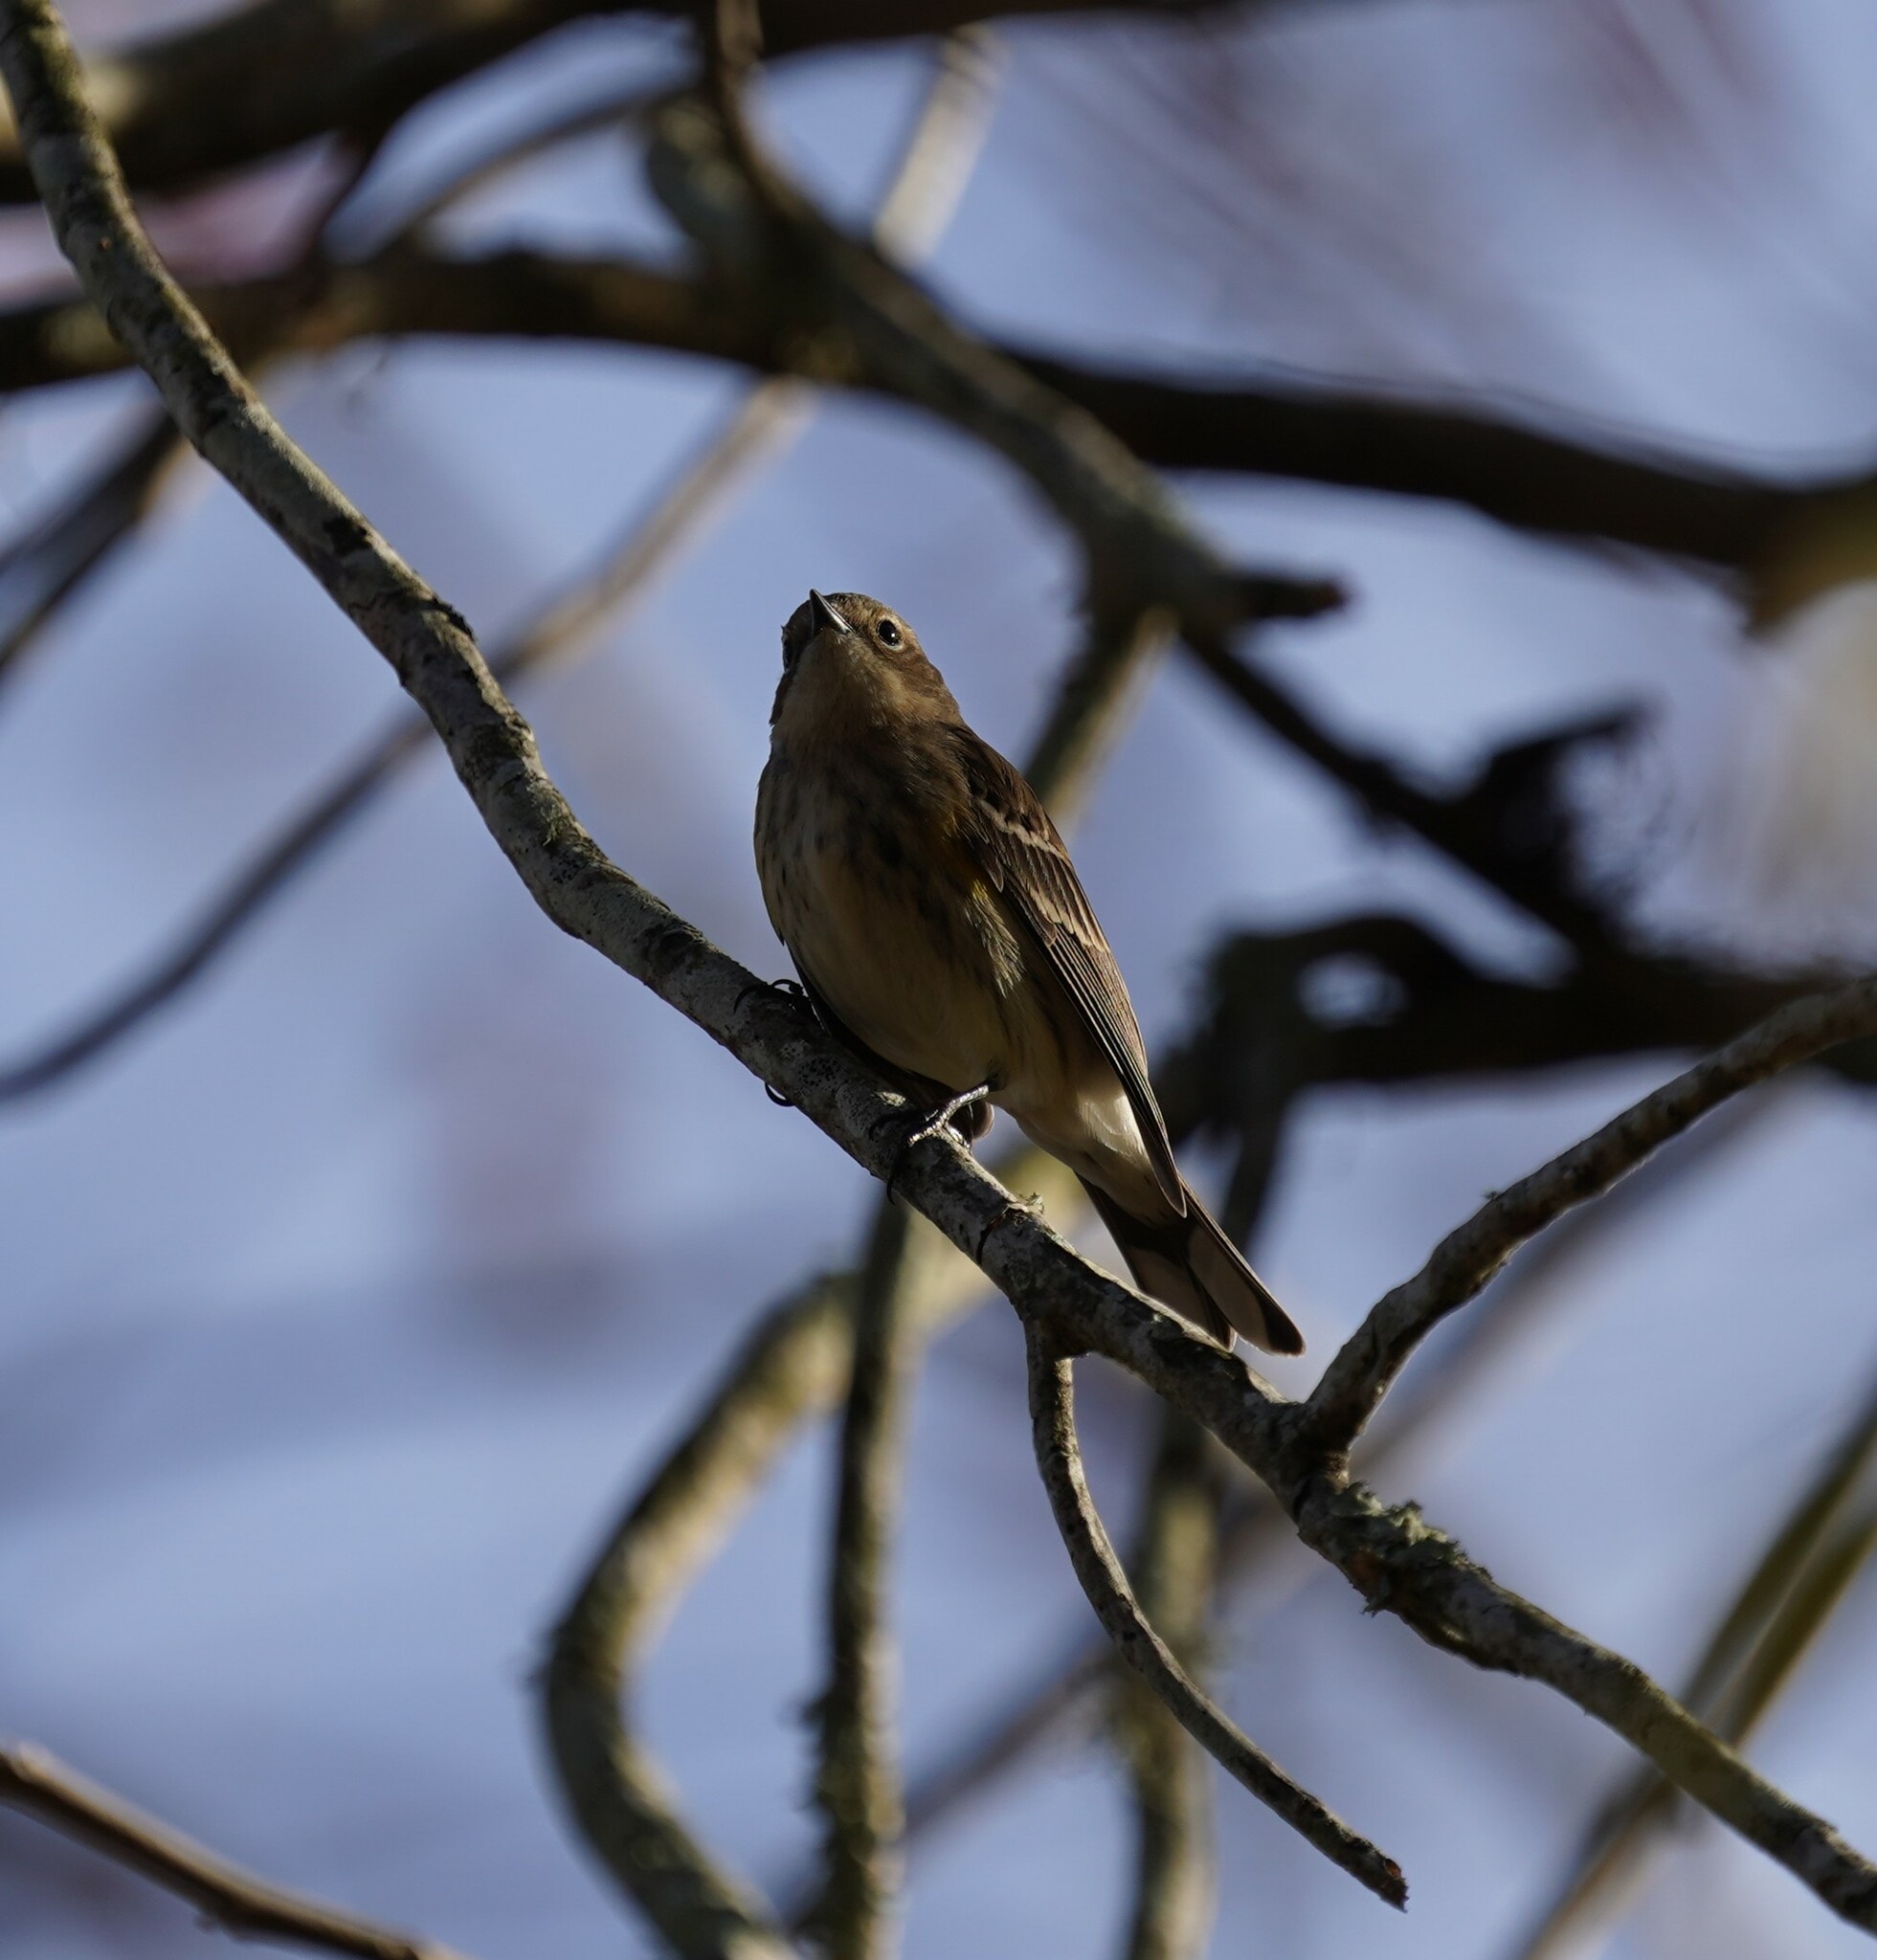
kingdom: Animalia
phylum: Chordata
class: Aves
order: Passeriformes
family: Parulidae
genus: Setophaga
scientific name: Setophaga coronata
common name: Myrtle warbler
